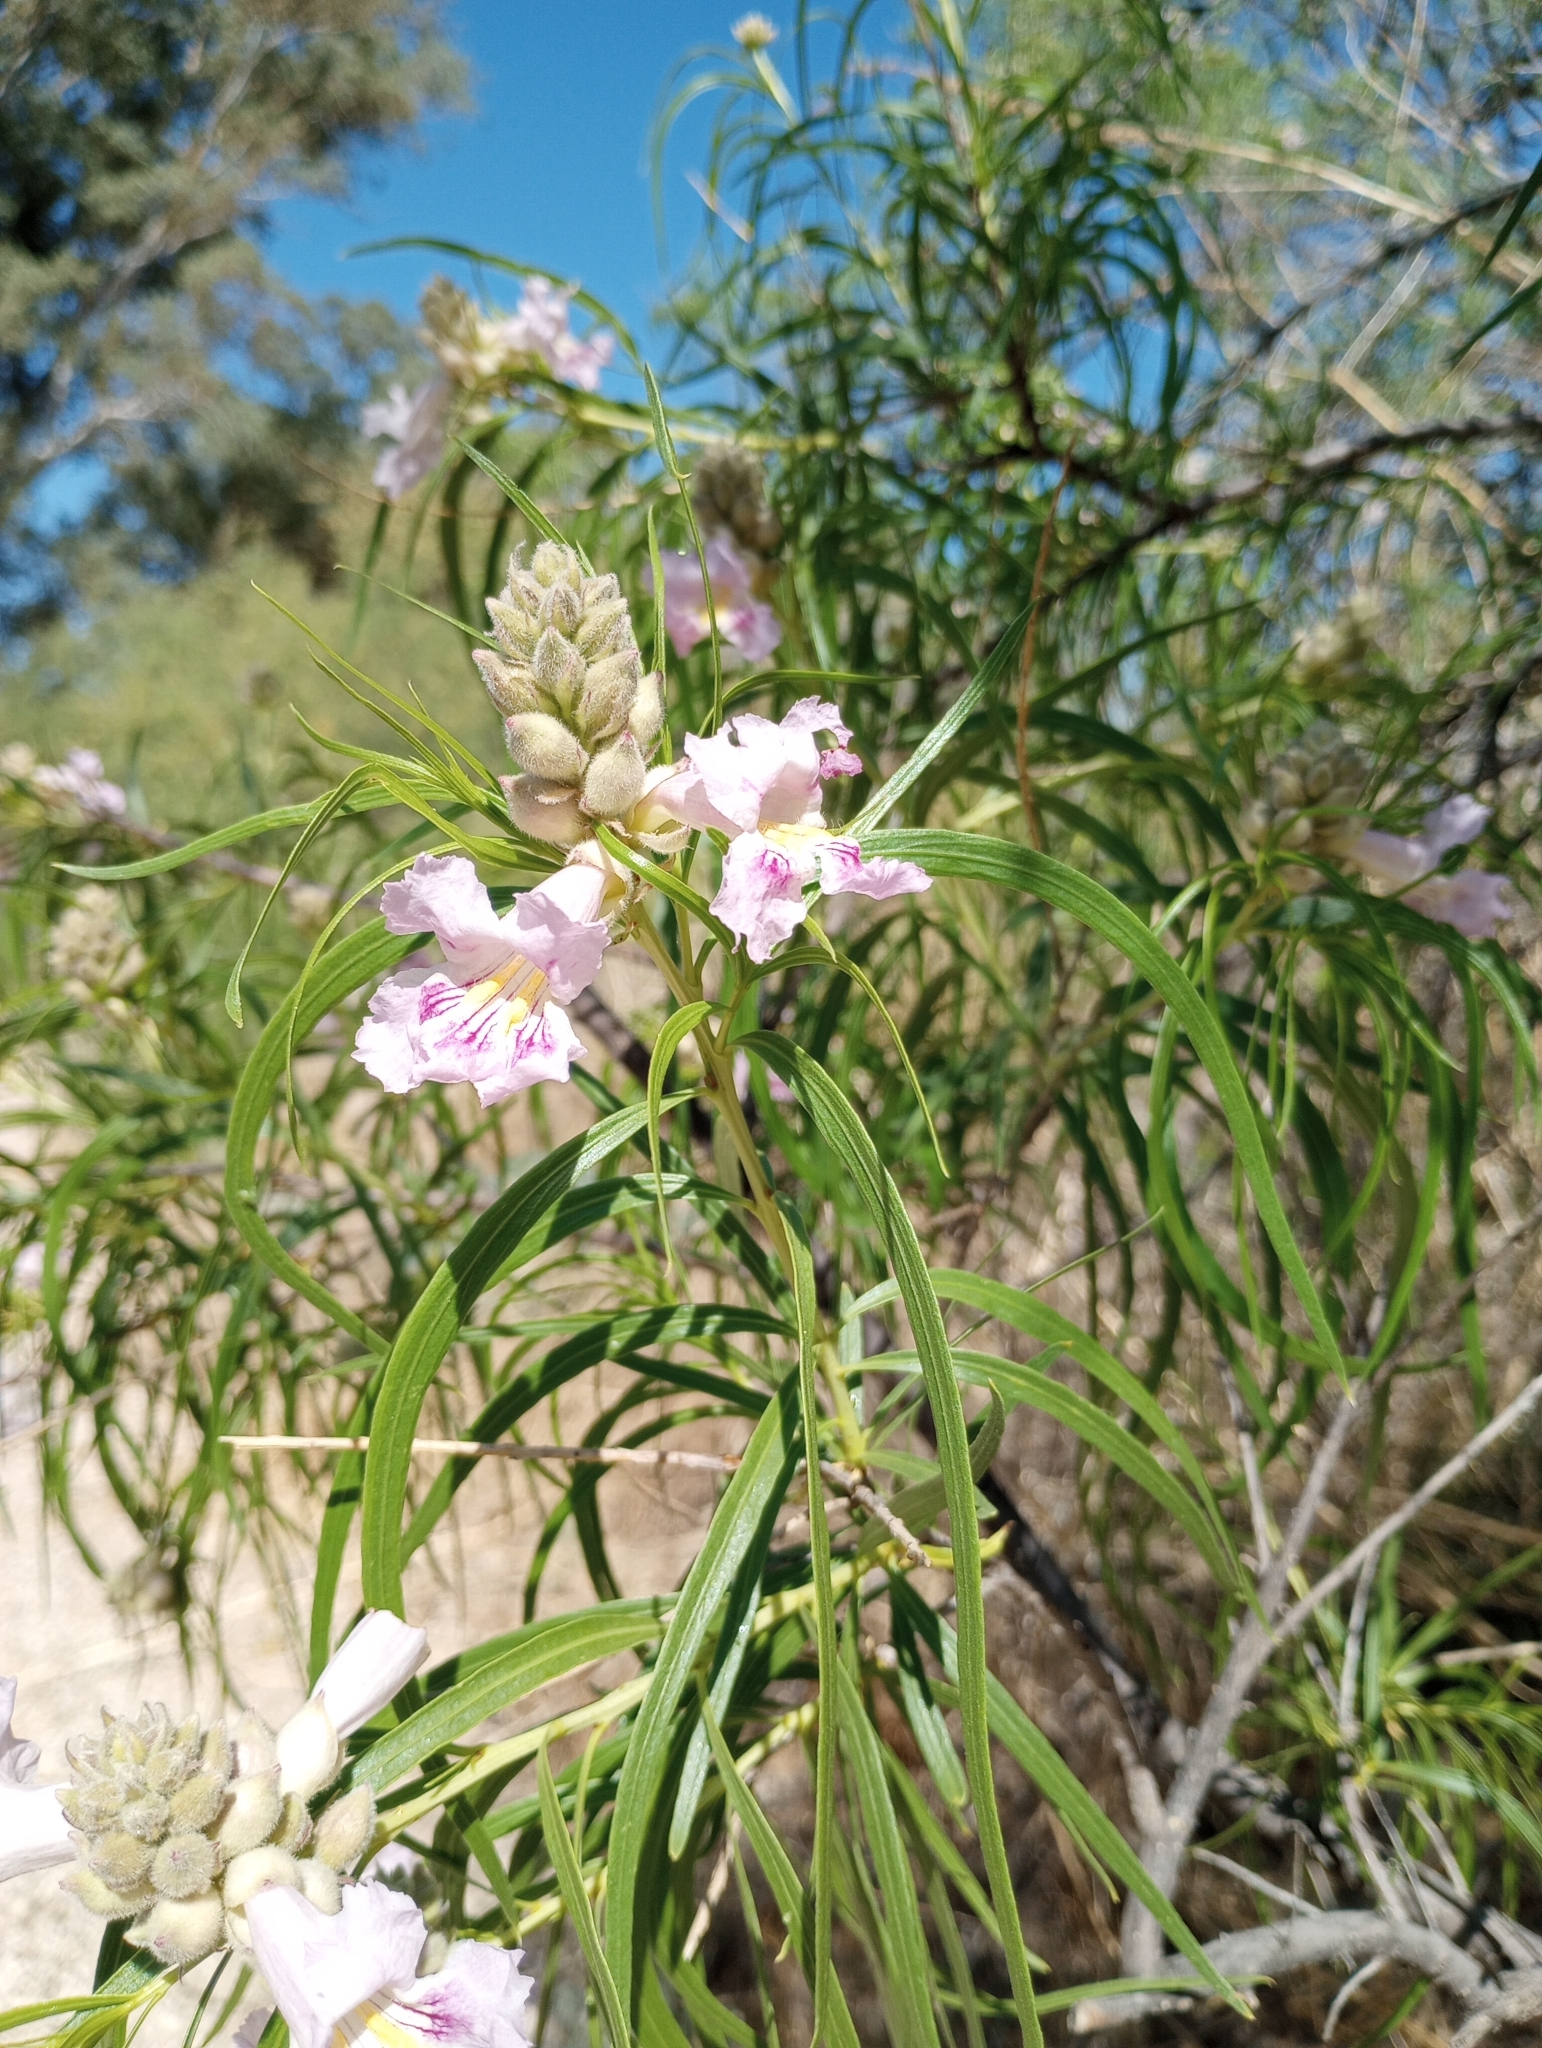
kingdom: Plantae
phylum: Tracheophyta
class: Magnoliopsida
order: Lamiales
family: Bignoniaceae
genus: Chilopsis
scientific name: Chilopsis linearis
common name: Desert-willow
